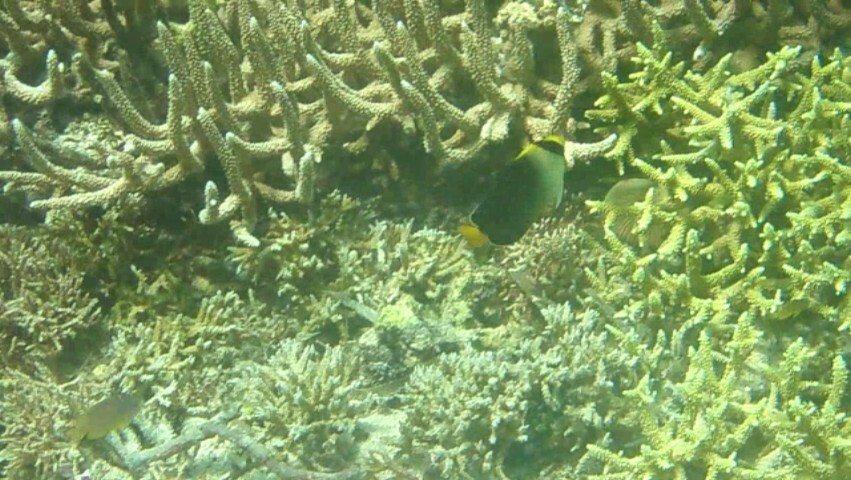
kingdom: Animalia
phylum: Chordata
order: Perciformes
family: Pomacanthidae
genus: Chaetodontoplus
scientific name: Chaetodontoplus mesoleucus
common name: Vermiculated angelfish
